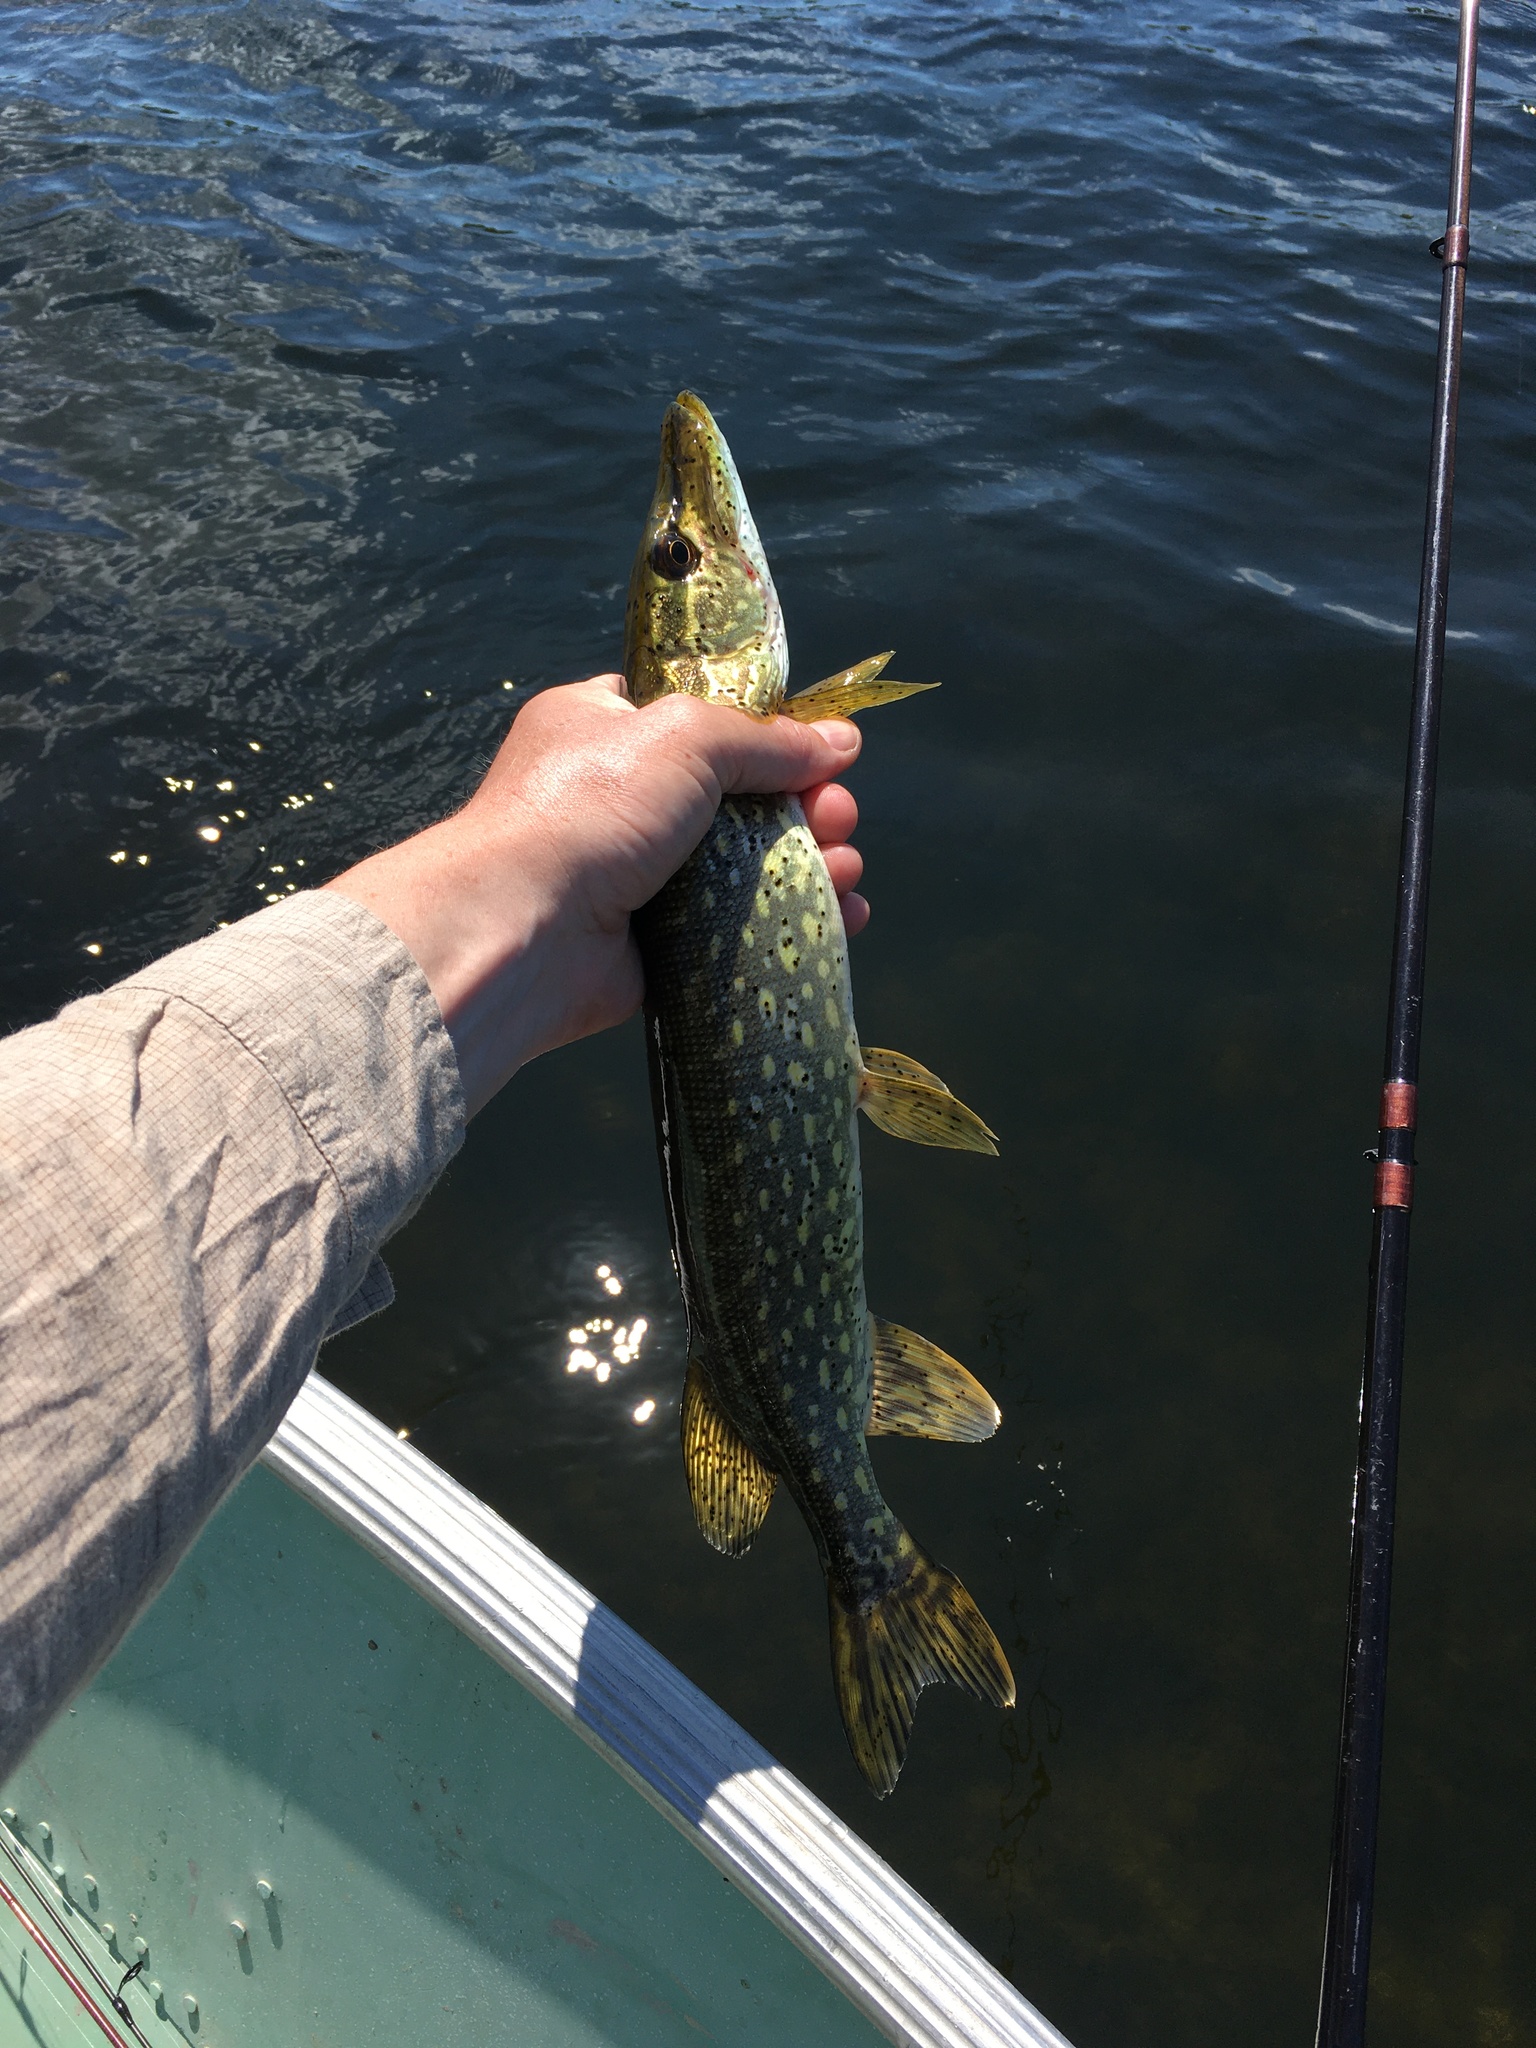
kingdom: Animalia
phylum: Chordata
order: Esociformes
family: Esocidae
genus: Esox
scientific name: Esox lucius
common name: Northern pike
